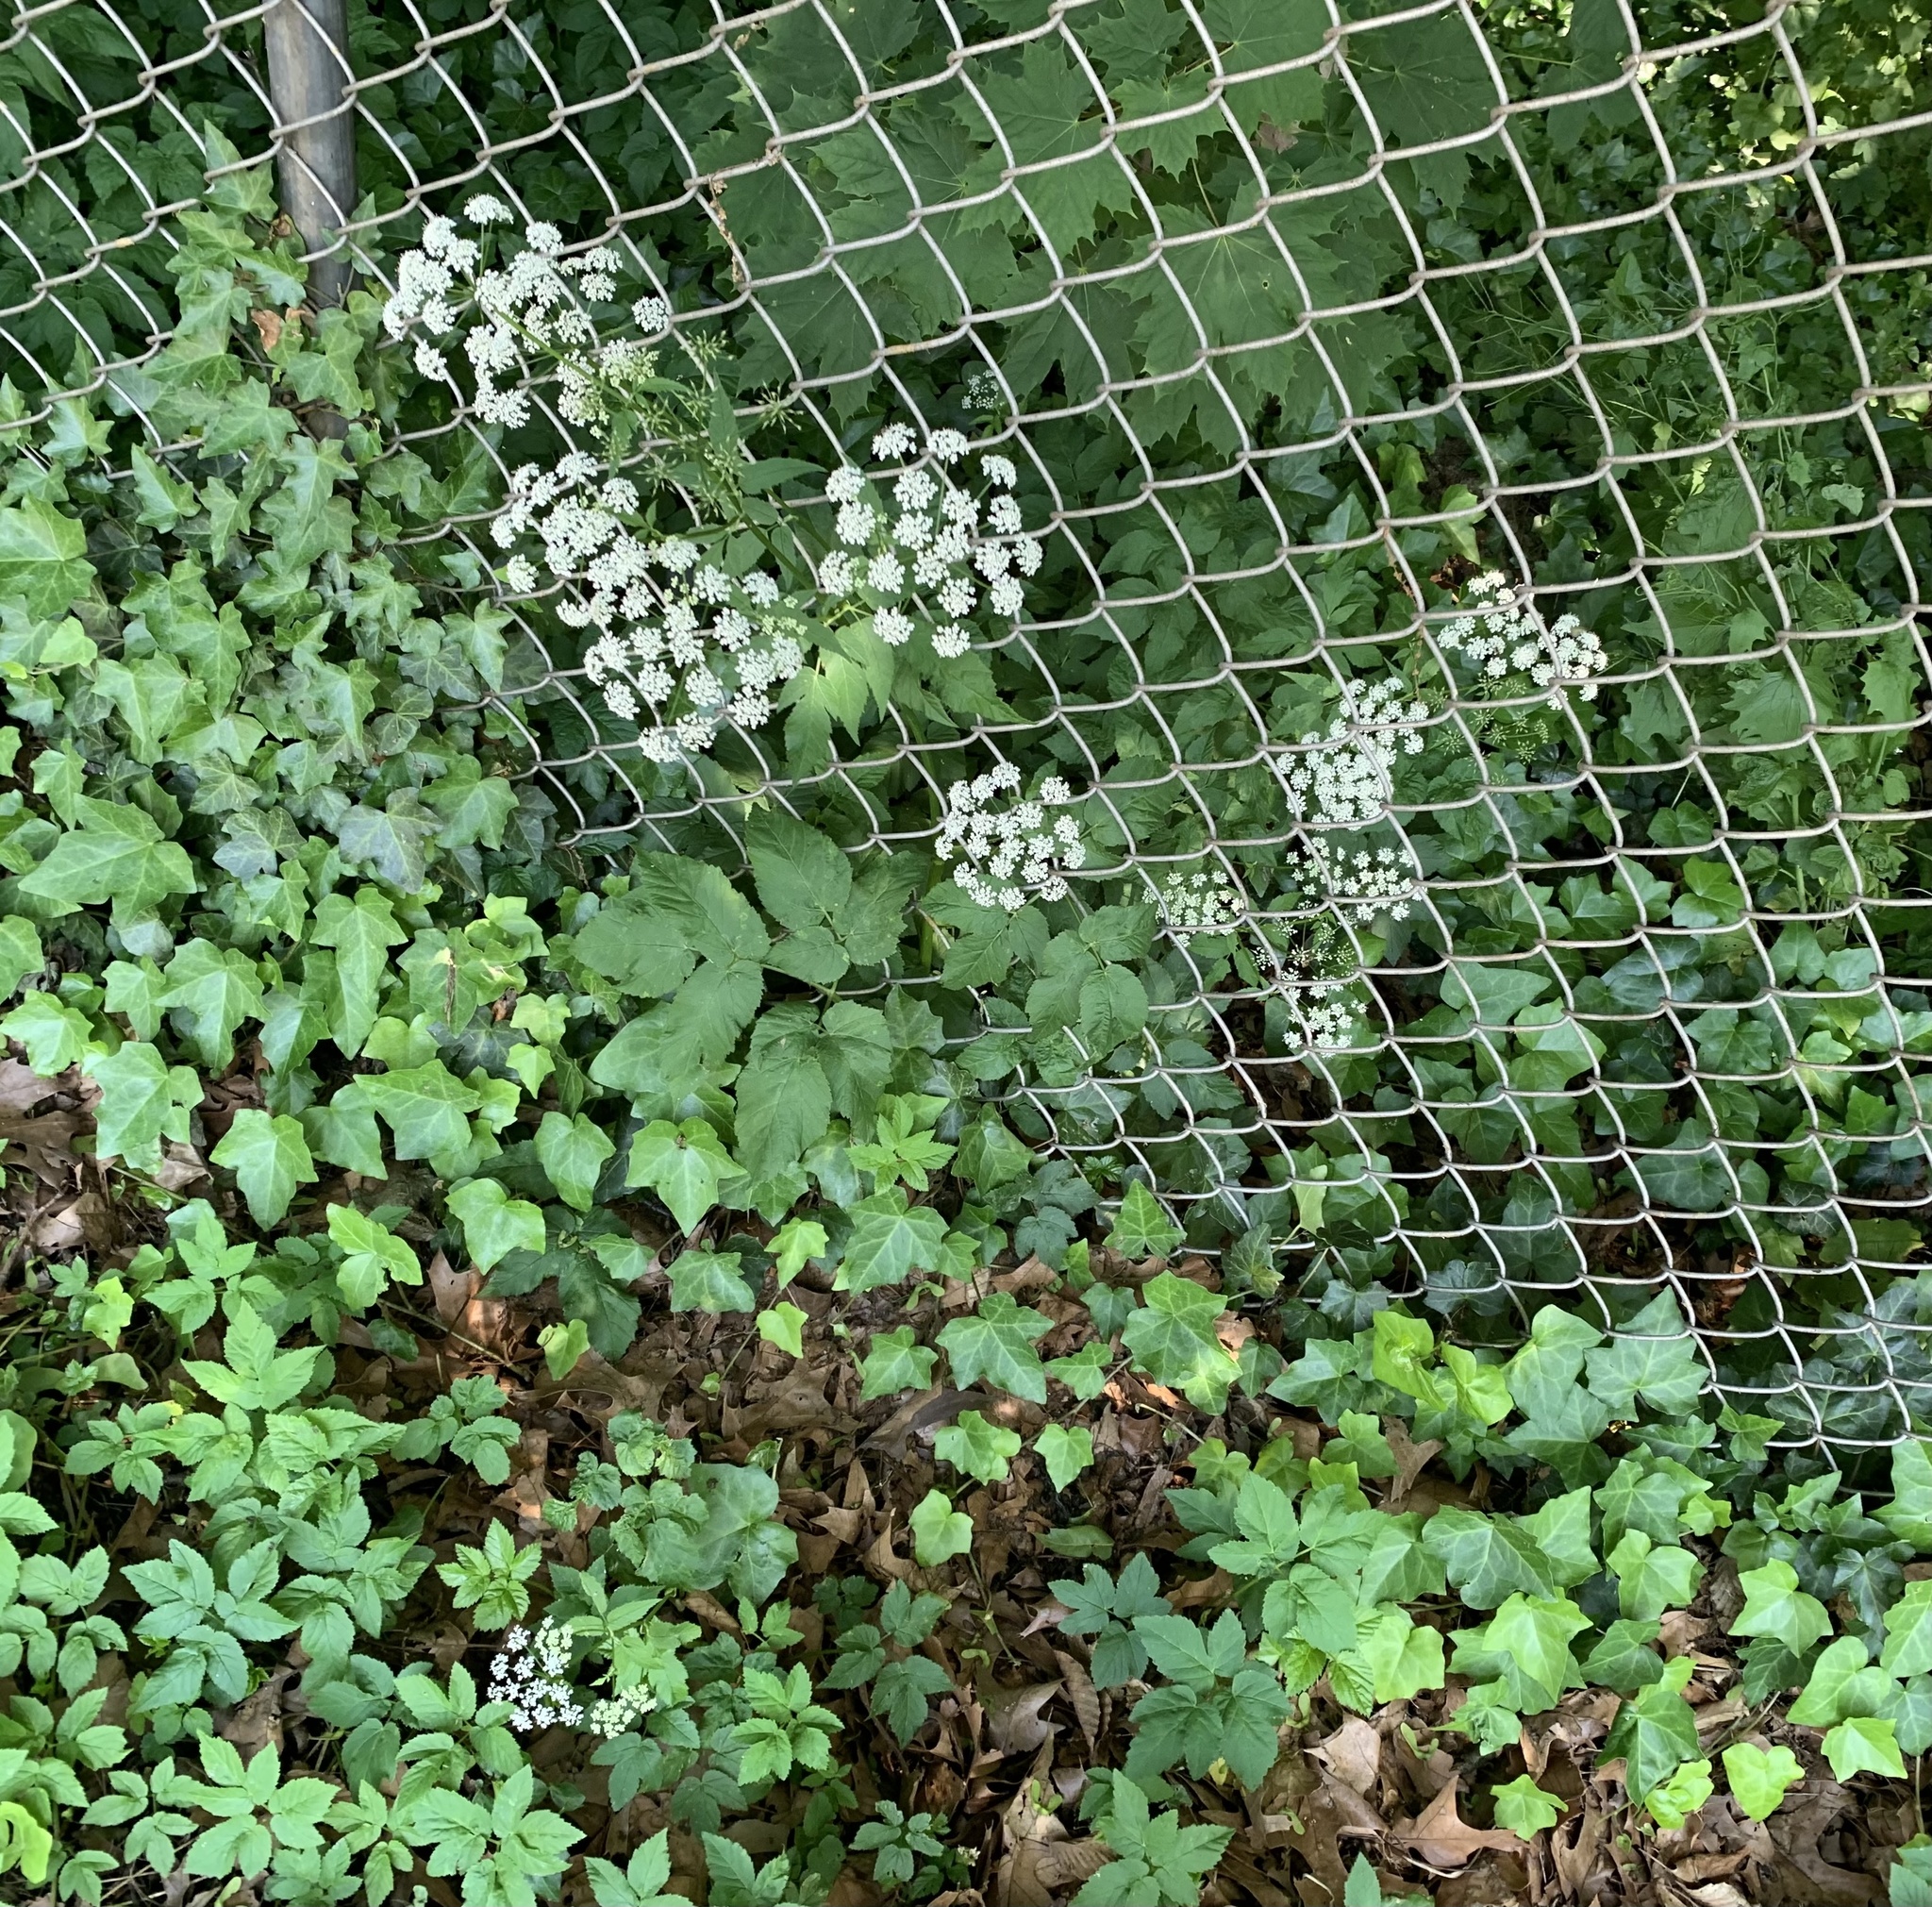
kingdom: Plantae
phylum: Tracheophyta
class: Magnoliopsida
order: Apiales
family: Apiaceae
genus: Aegopodium
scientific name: Aegopodium podagraria
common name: Ground-elder
